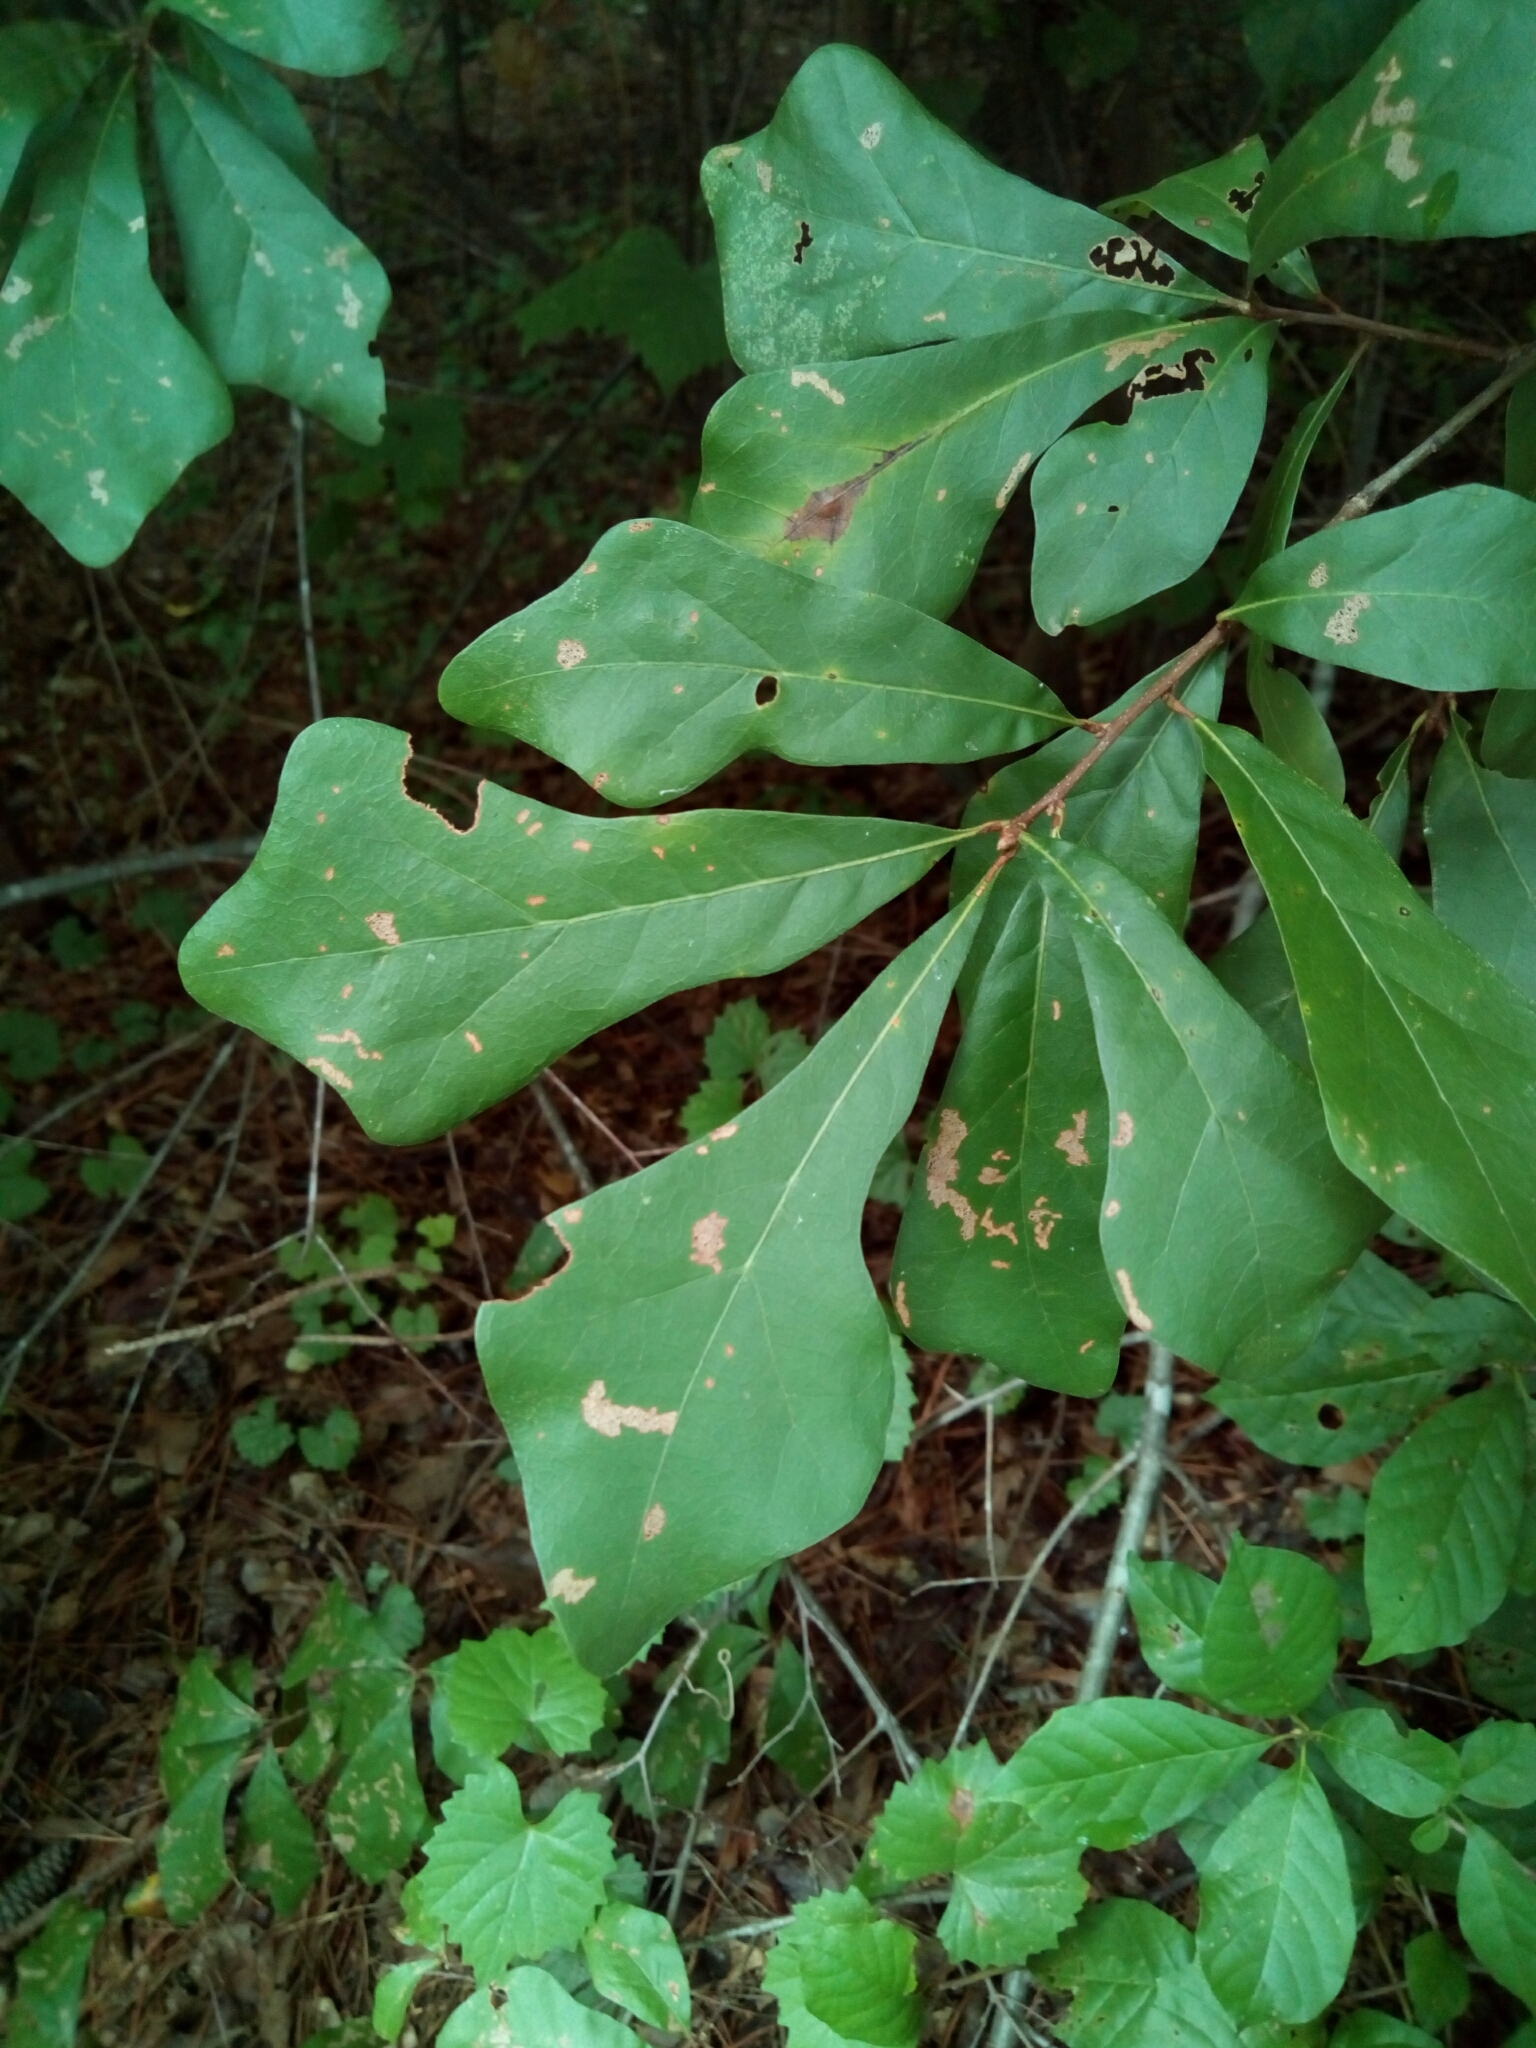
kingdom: Plantae
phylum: Tracheophyta
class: Magnoliopsida
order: Fagales
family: Fagaceae
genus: Quercus
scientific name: Quercus nigra
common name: Water oak
